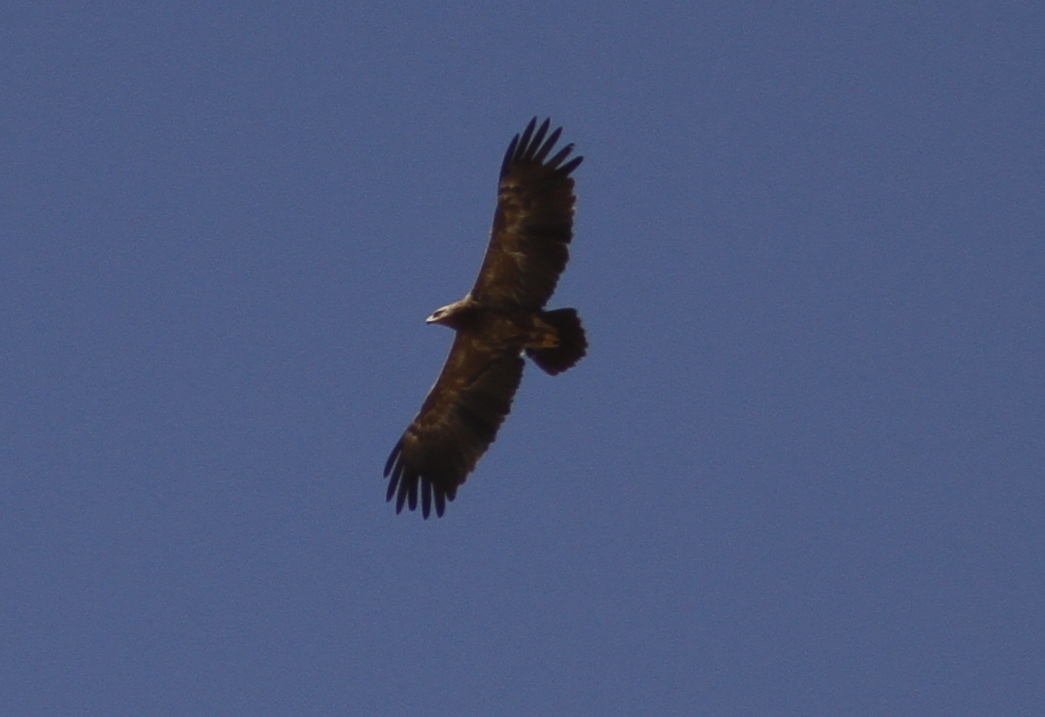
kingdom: Animalia
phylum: Chordata
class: Aves
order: Accipitriformes
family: Accipitridae
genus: Aquila
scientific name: Aquila pomarina
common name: Lesser spotted eagle
